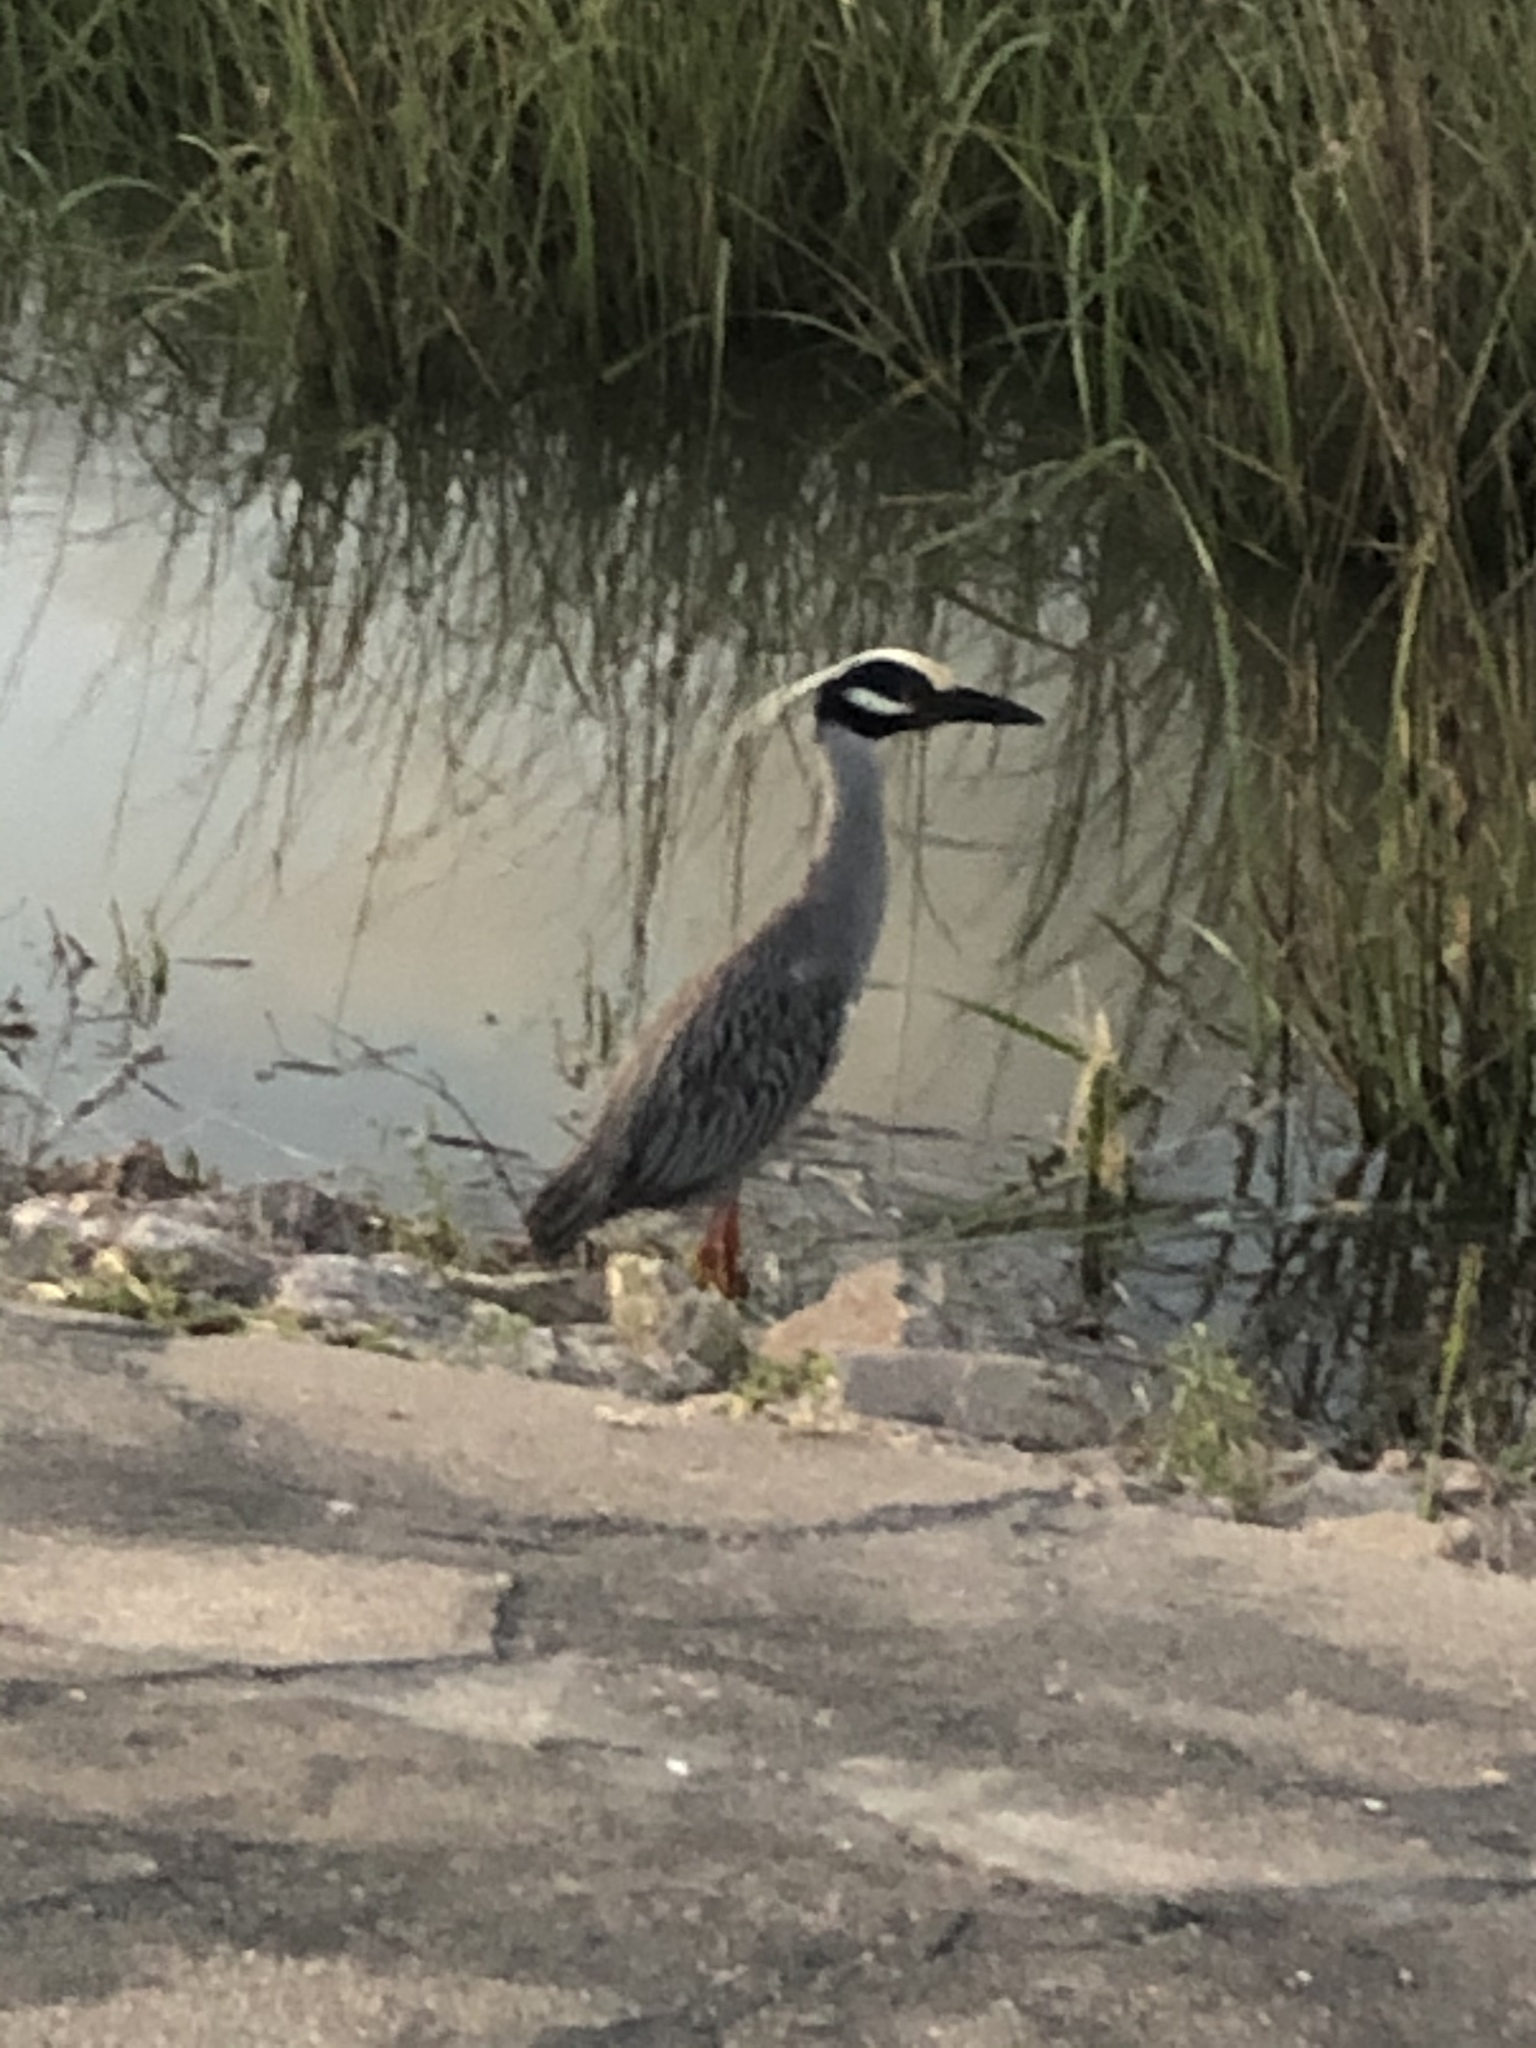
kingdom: Animalia
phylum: Chordata
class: Aves
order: Pelecaniformes
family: Ardeidae
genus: Nyctanassa
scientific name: Nyctanassa violacea
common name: Yellow-crowned night heron
